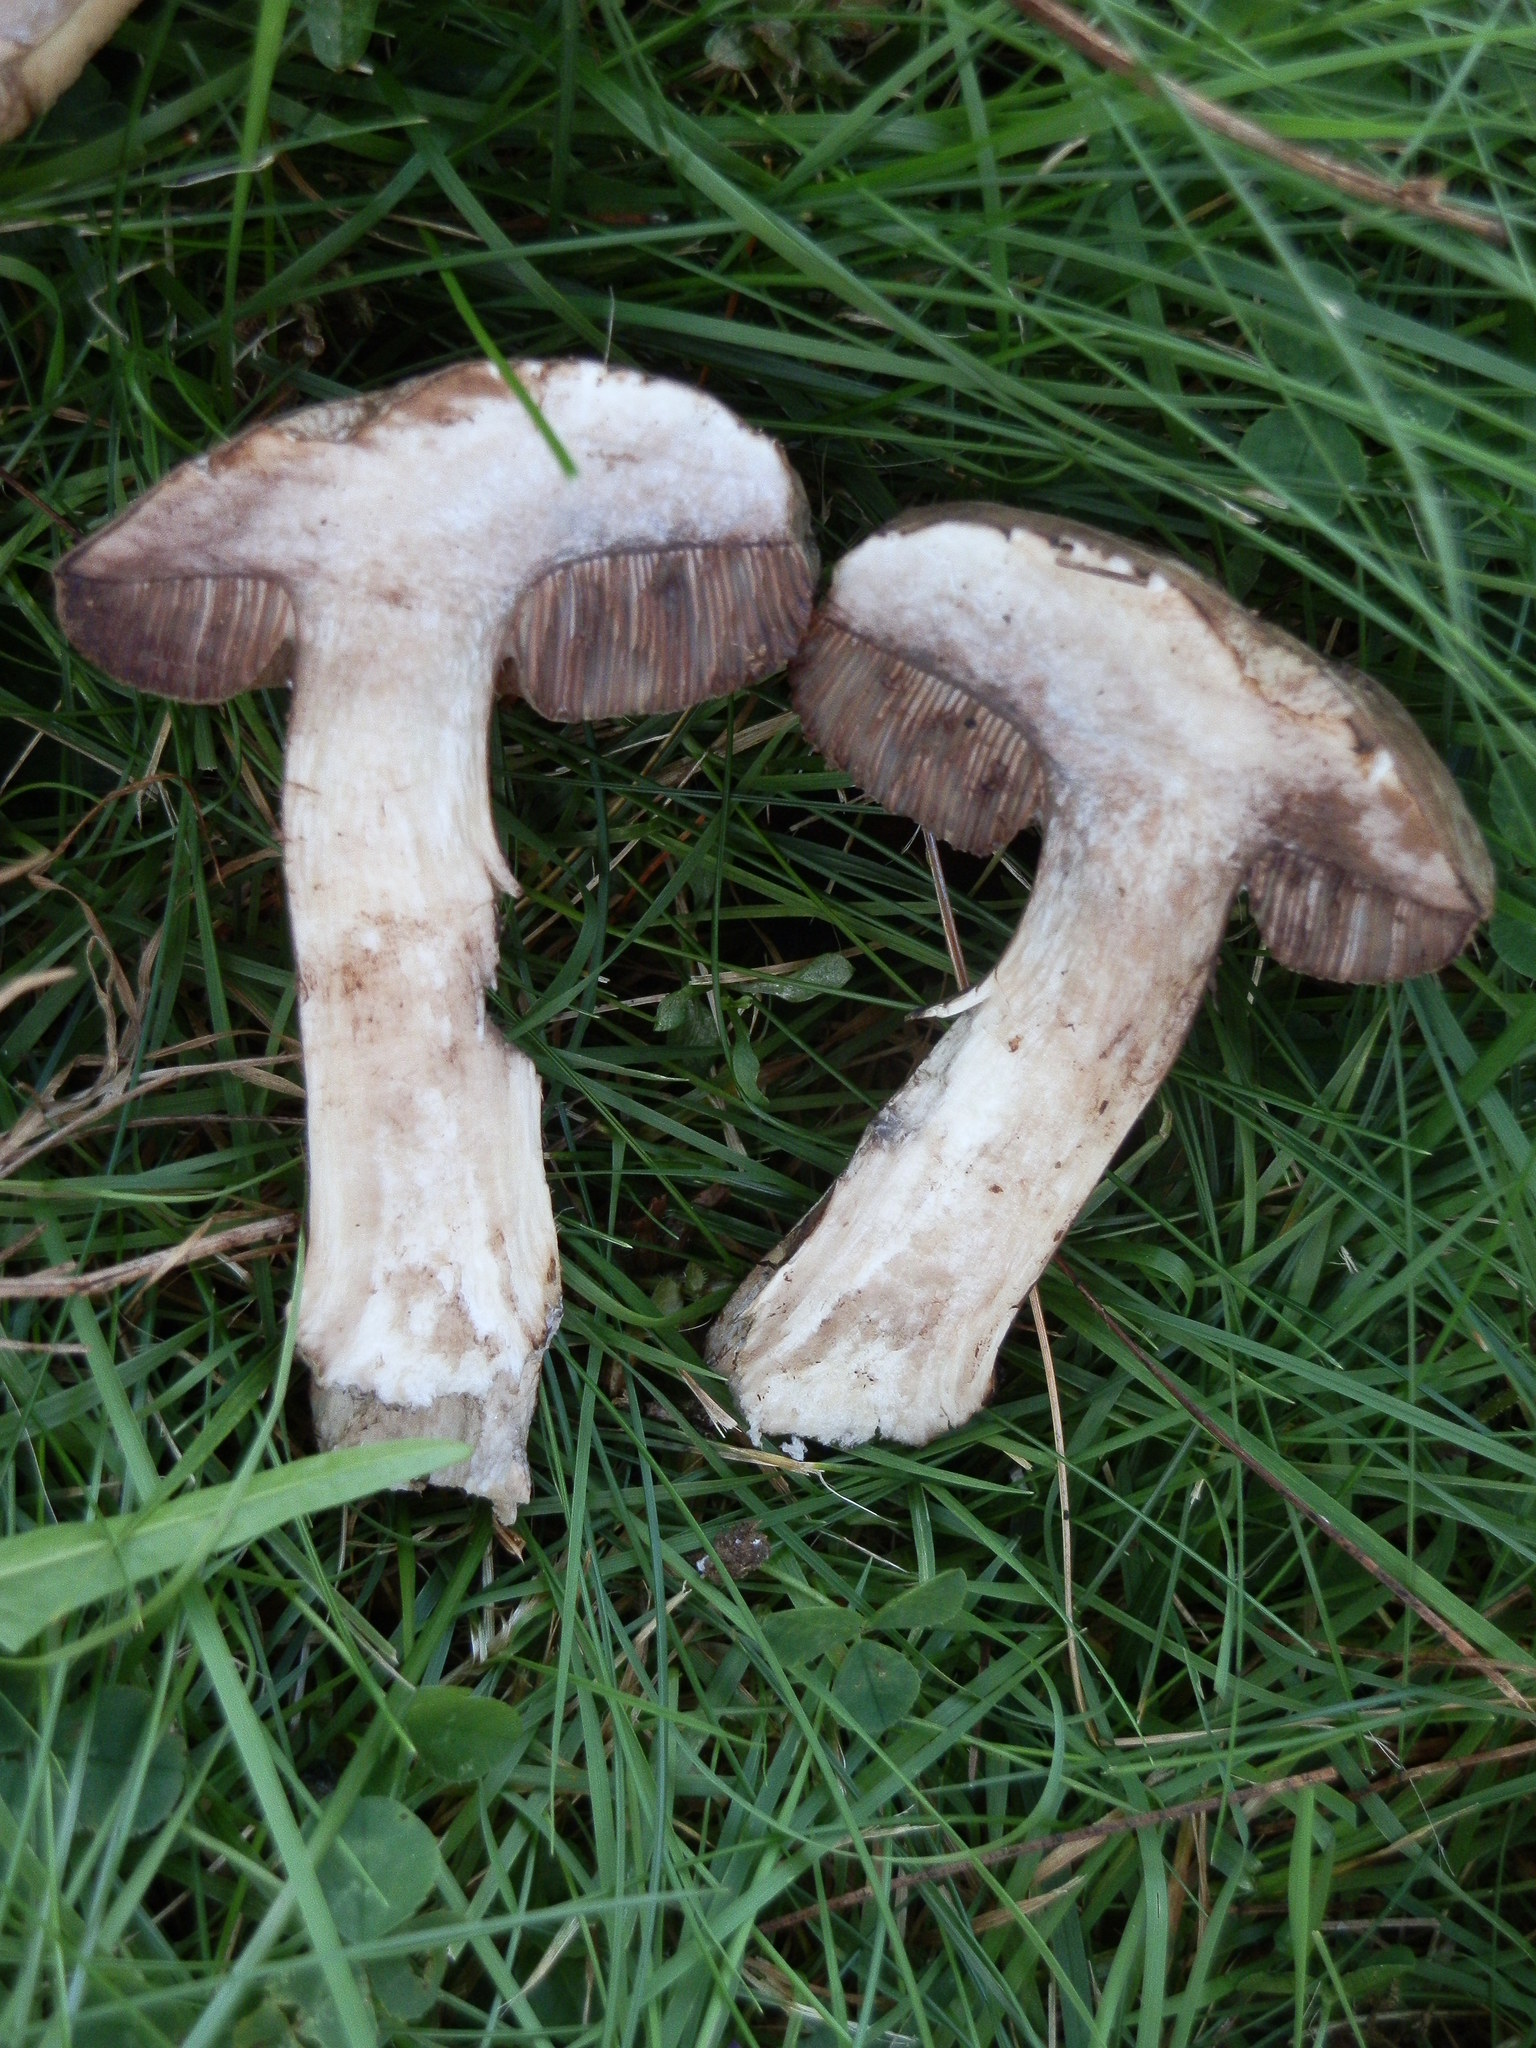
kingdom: Fungi
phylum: Basidiomycota
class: Agaricomycetes
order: Boletales
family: Boletaceae
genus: Porphyrellus
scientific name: Porphyrellus porphyrosporus
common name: Dusky bolete
